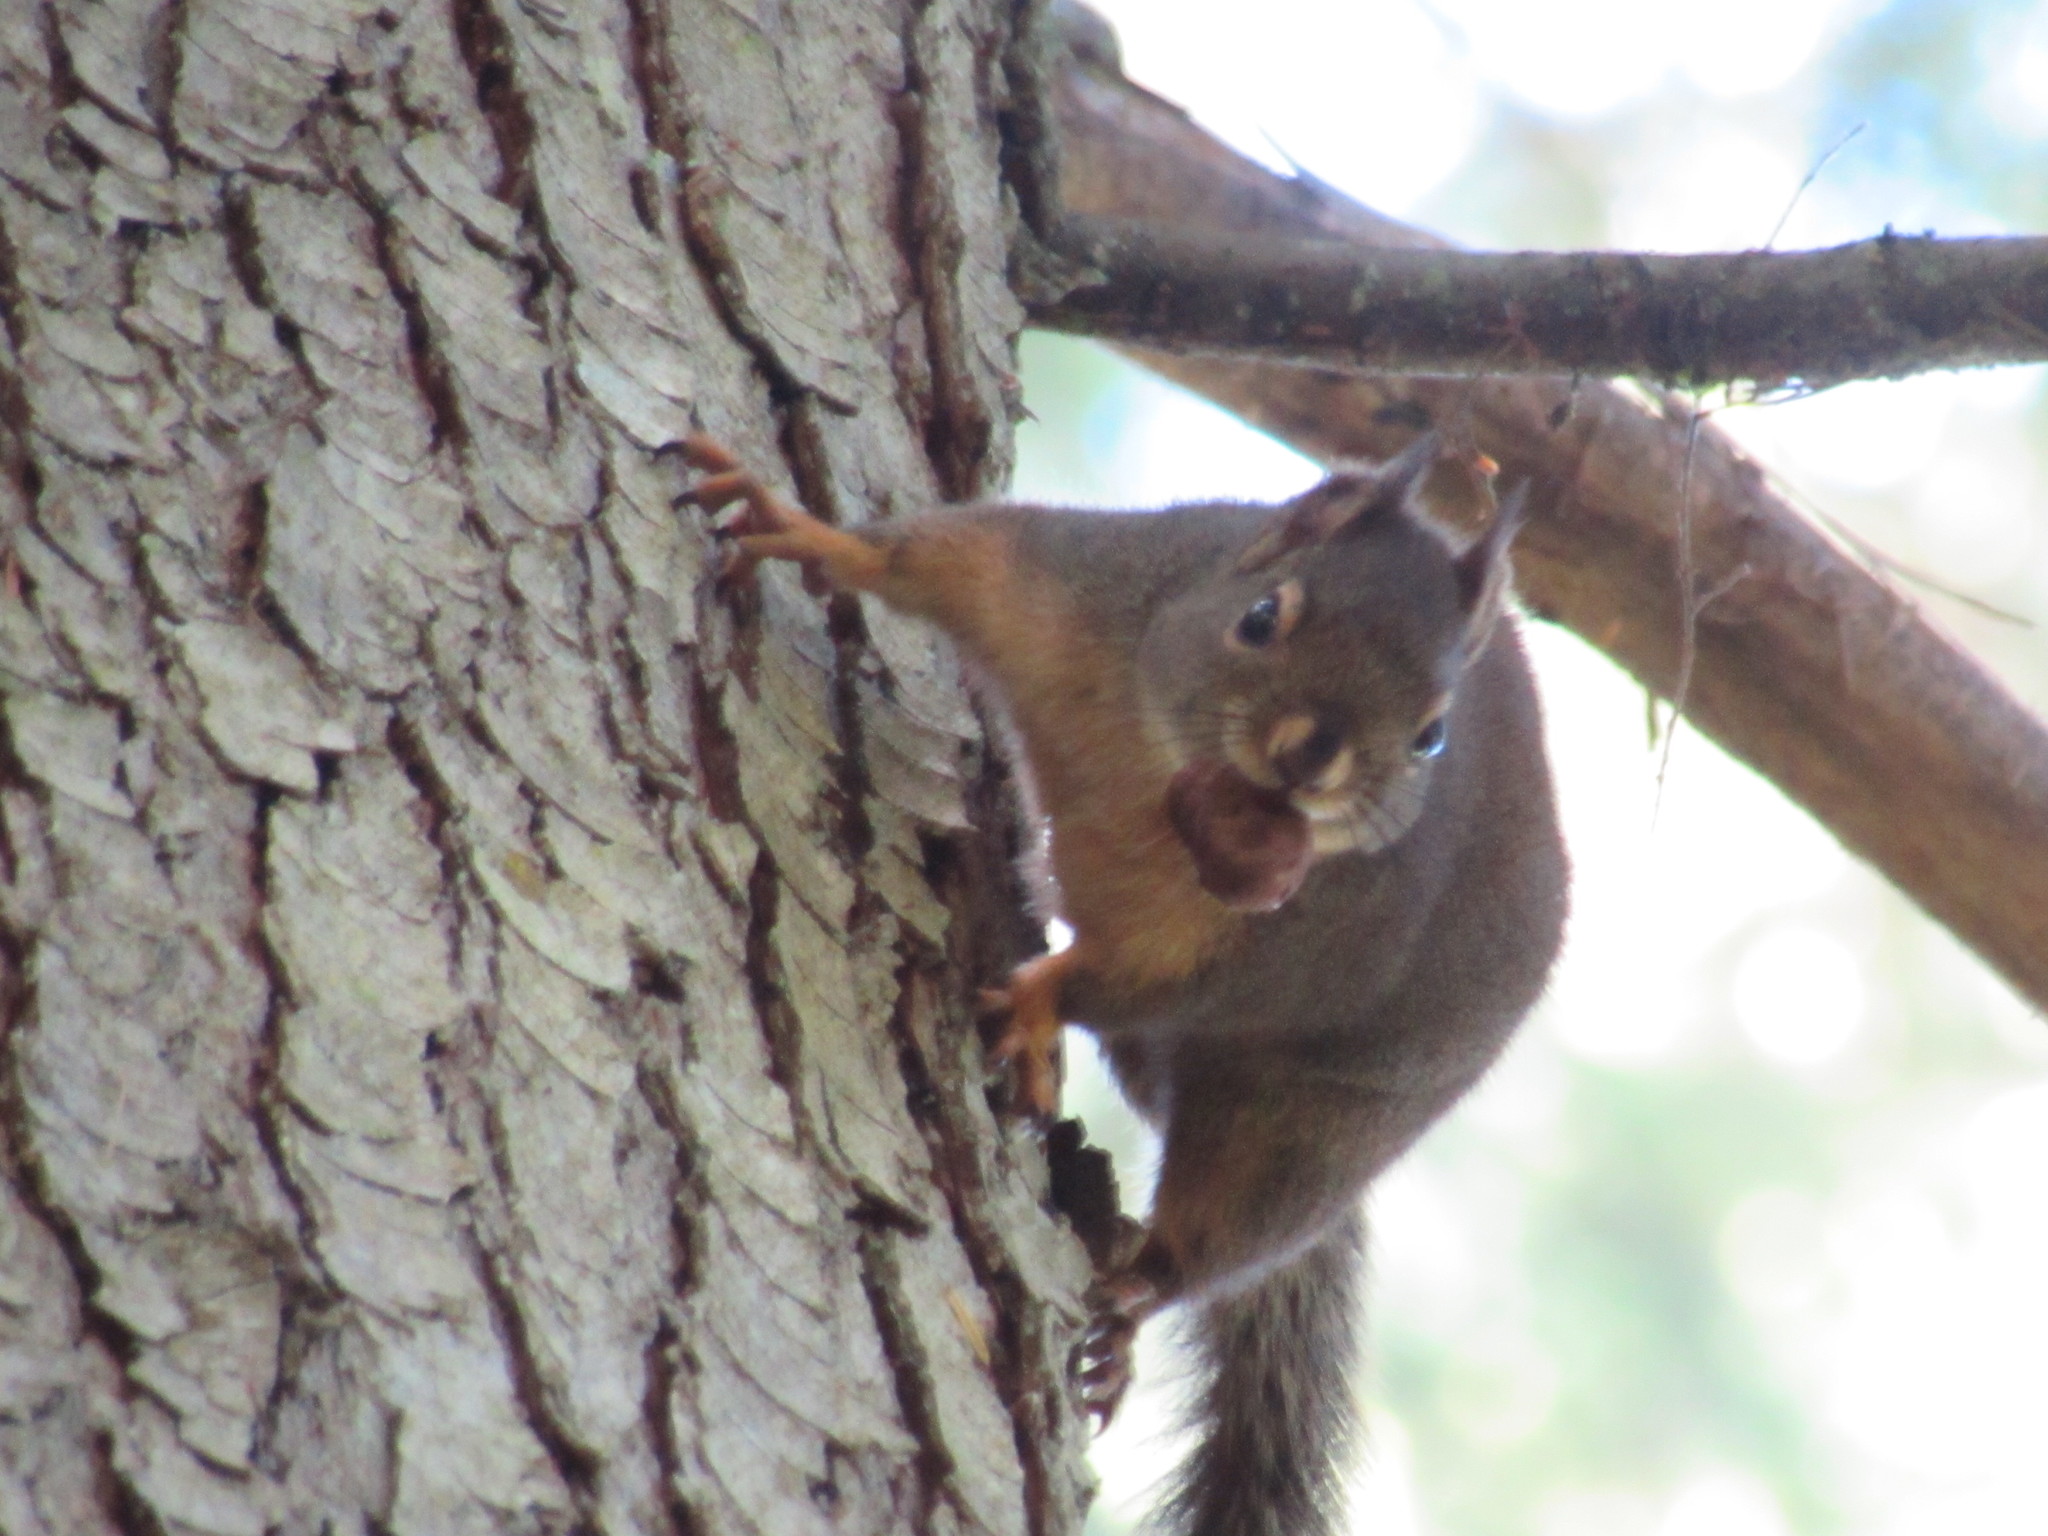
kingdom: Animalia
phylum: Chordata
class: Mammalia
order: Rodentia
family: Sciuridae
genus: Tamiasciurus
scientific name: Tamiasciurus douglasii
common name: Douglas's squirrel
